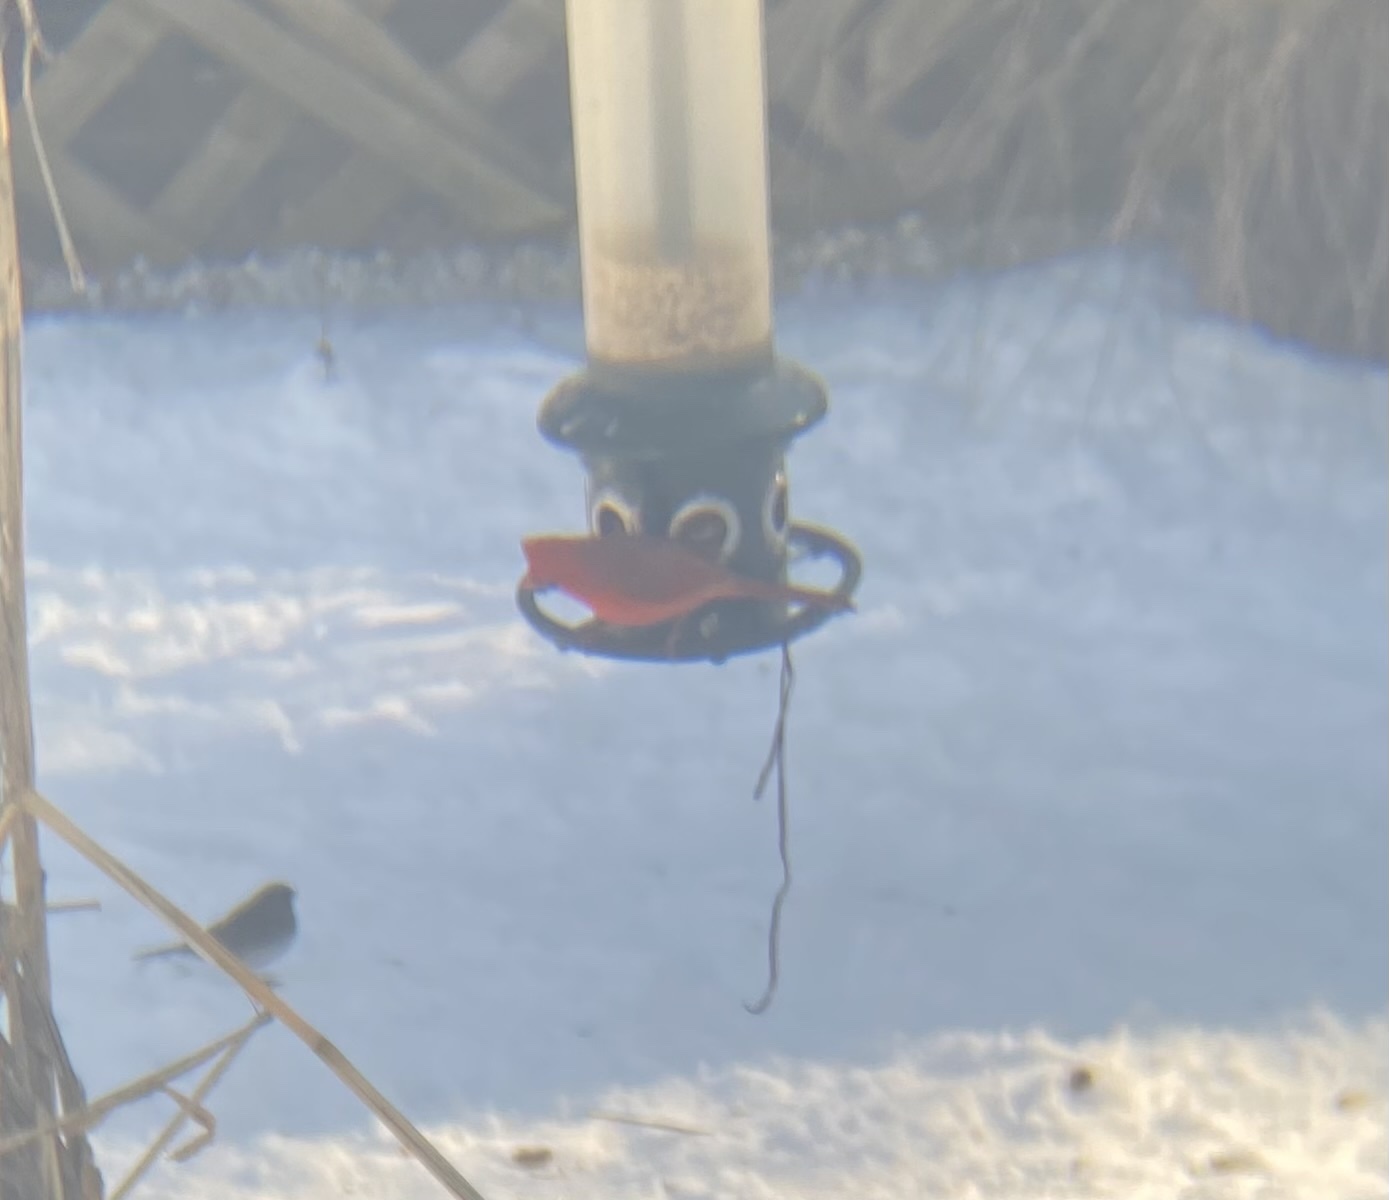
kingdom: Animalia
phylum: Chordata
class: Aves
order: Passeriformes
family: Cardinalidae
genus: Cardinalis
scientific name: Cardinalis cardinalis
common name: Northern cardinal
